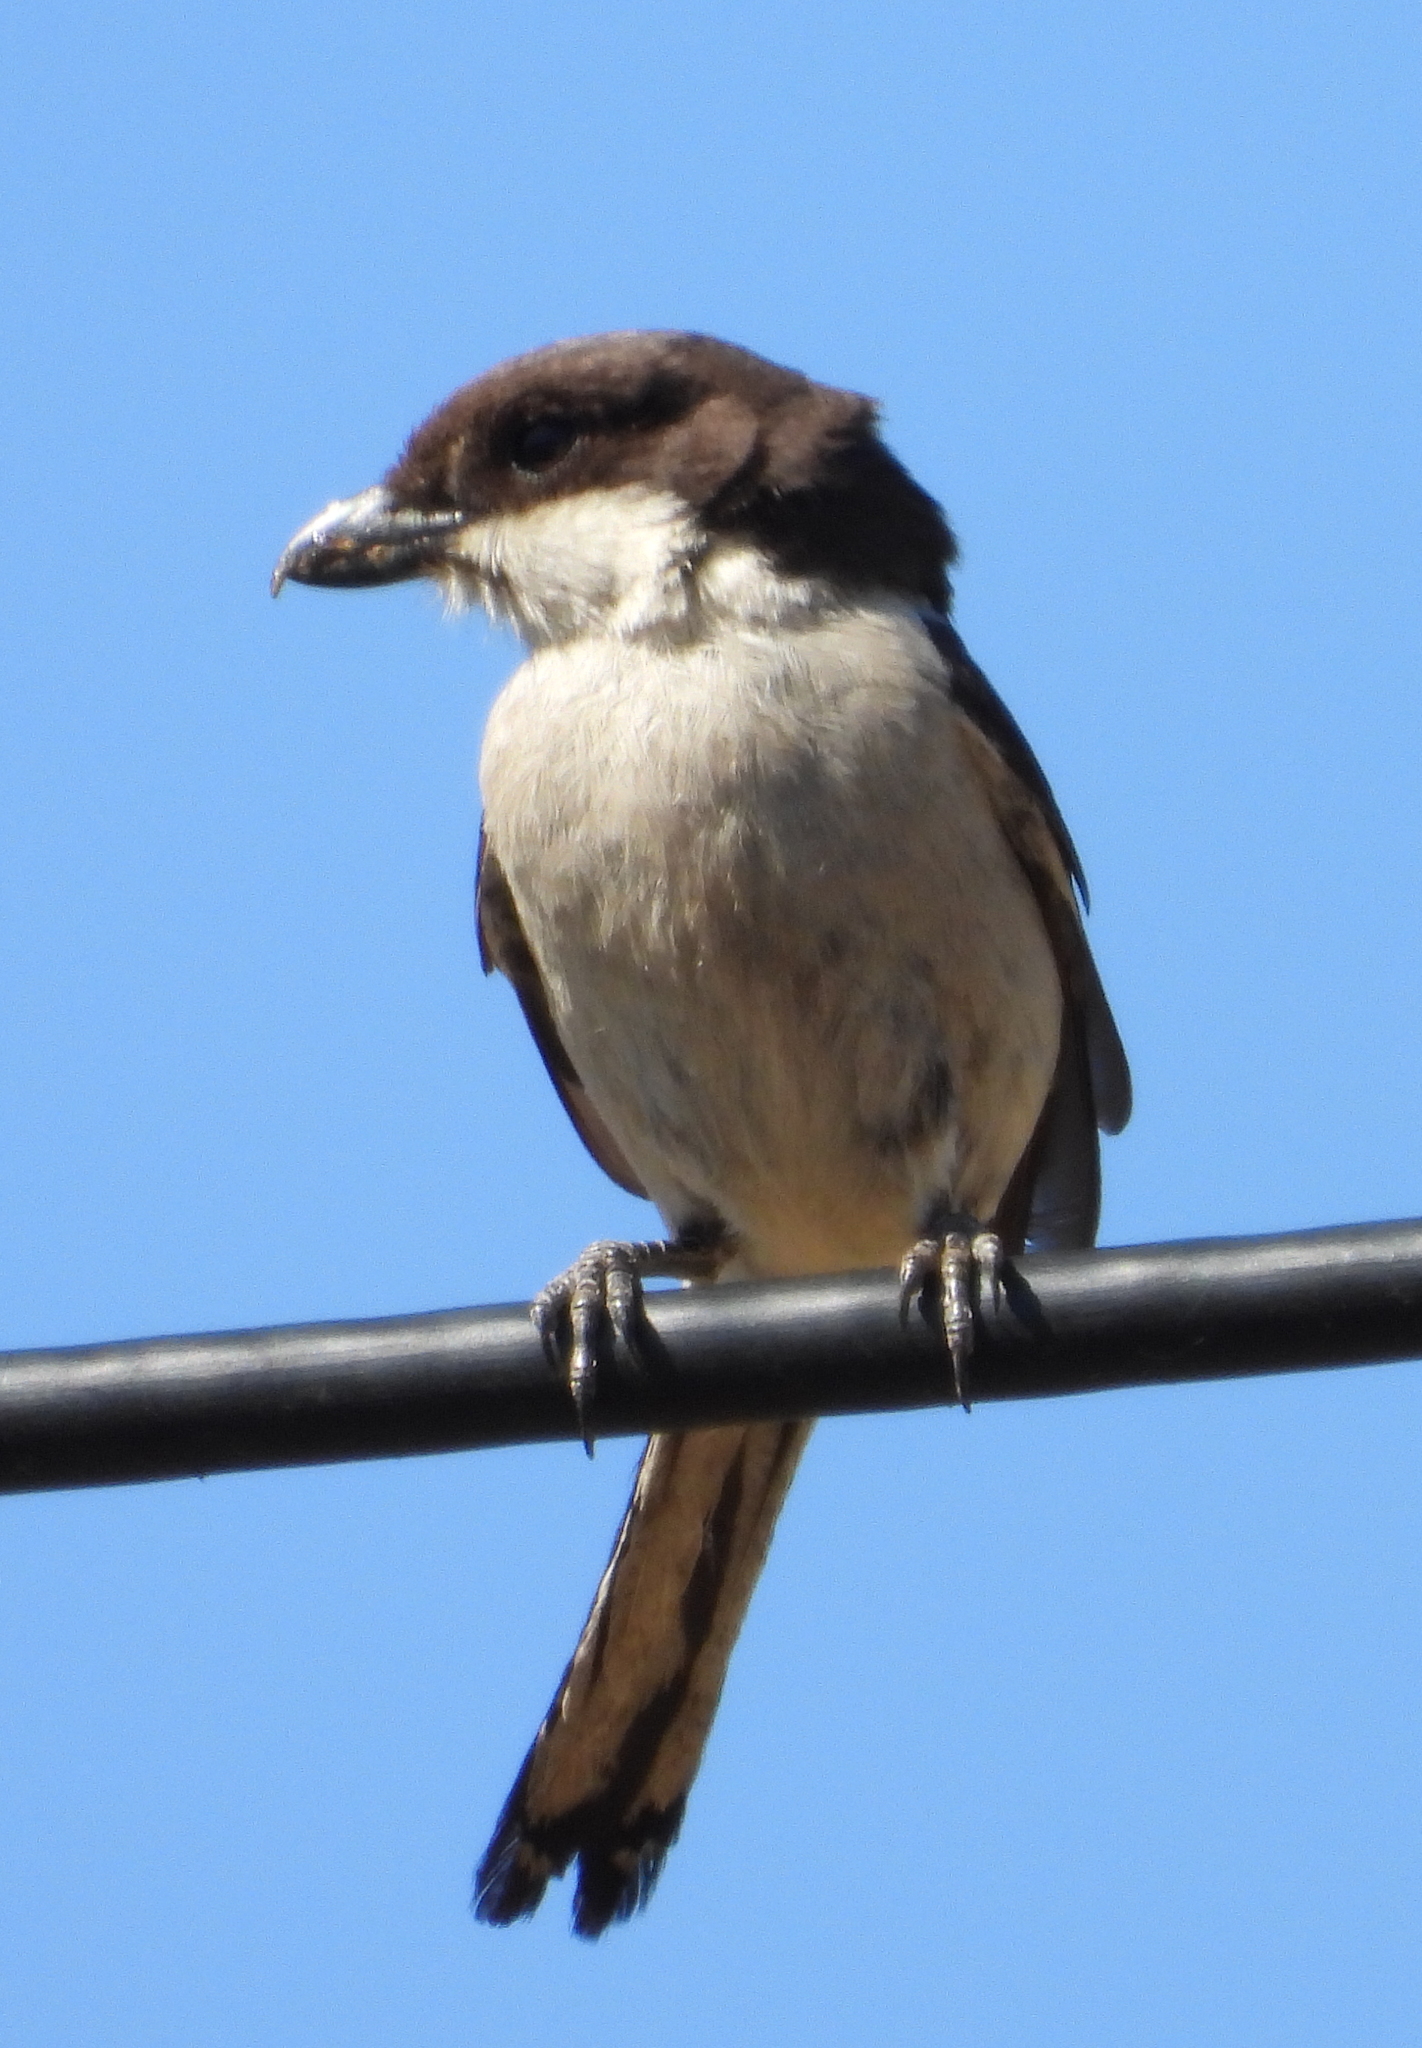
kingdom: Animalia
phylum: Chordata
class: Aves
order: Passeriformes
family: Laniidae
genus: Lanius
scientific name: Lanius collaris
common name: Southern fiscal
